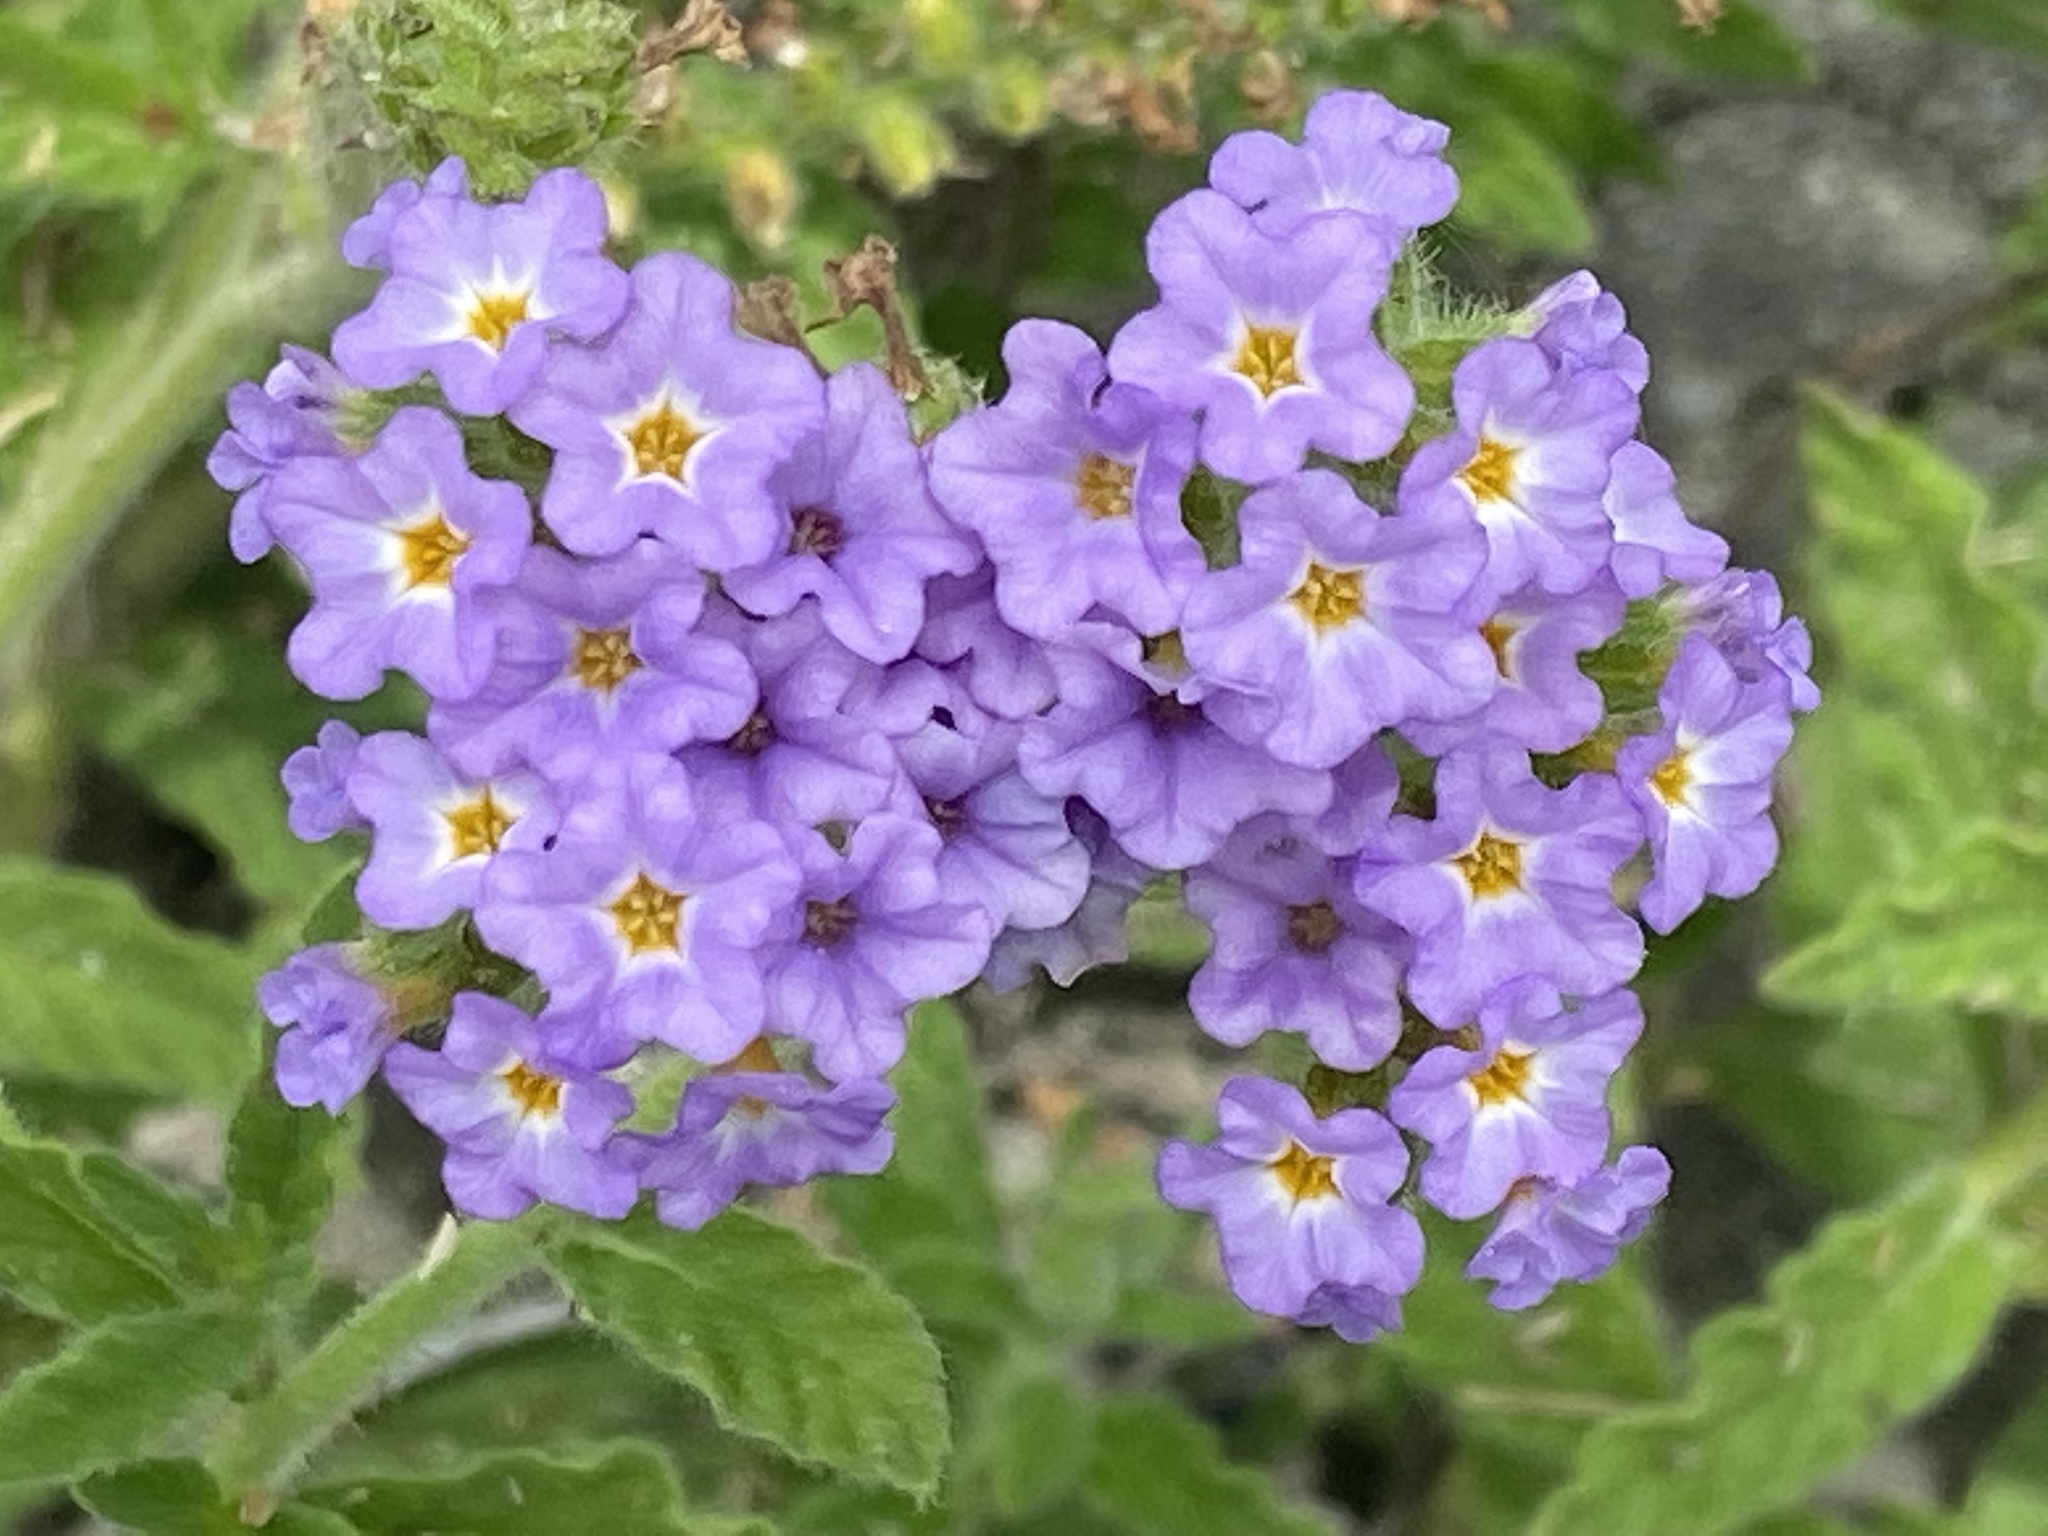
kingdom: Plantae
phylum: Tracheophyta
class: Magnoliopsida
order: Boraginales
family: Heliotropiaceae
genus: Heliotropium
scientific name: Heliotropium amplexicaule
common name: Clasping heliotrope
